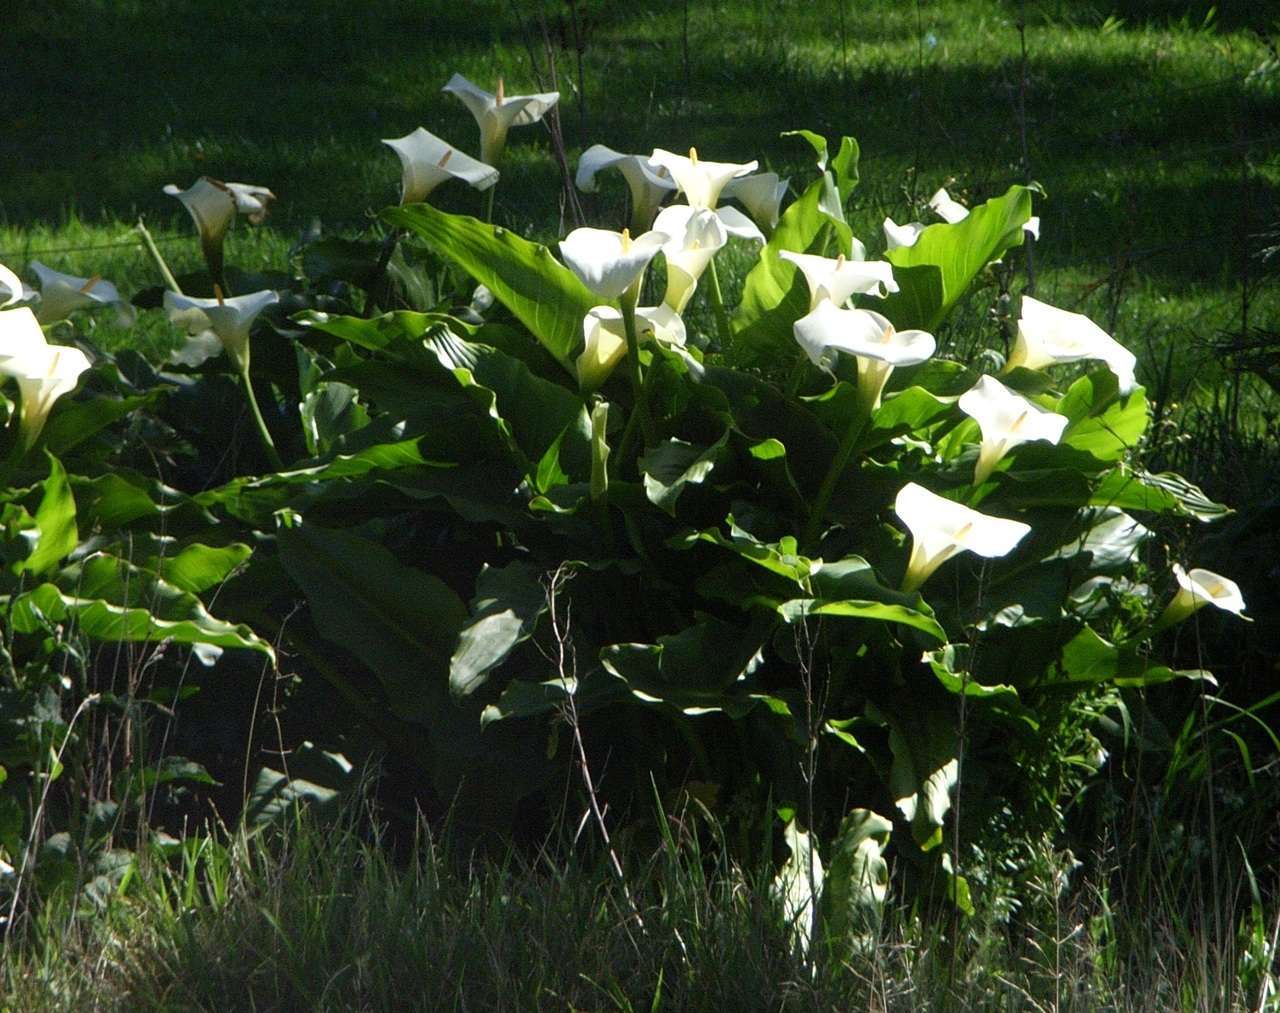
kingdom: Plantae
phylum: Tracheophyta
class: Liliopsida
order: Alismatales
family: Araceae
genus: Zantedeschia
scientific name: Zantedeschia aethiopica
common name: Altar-lily
